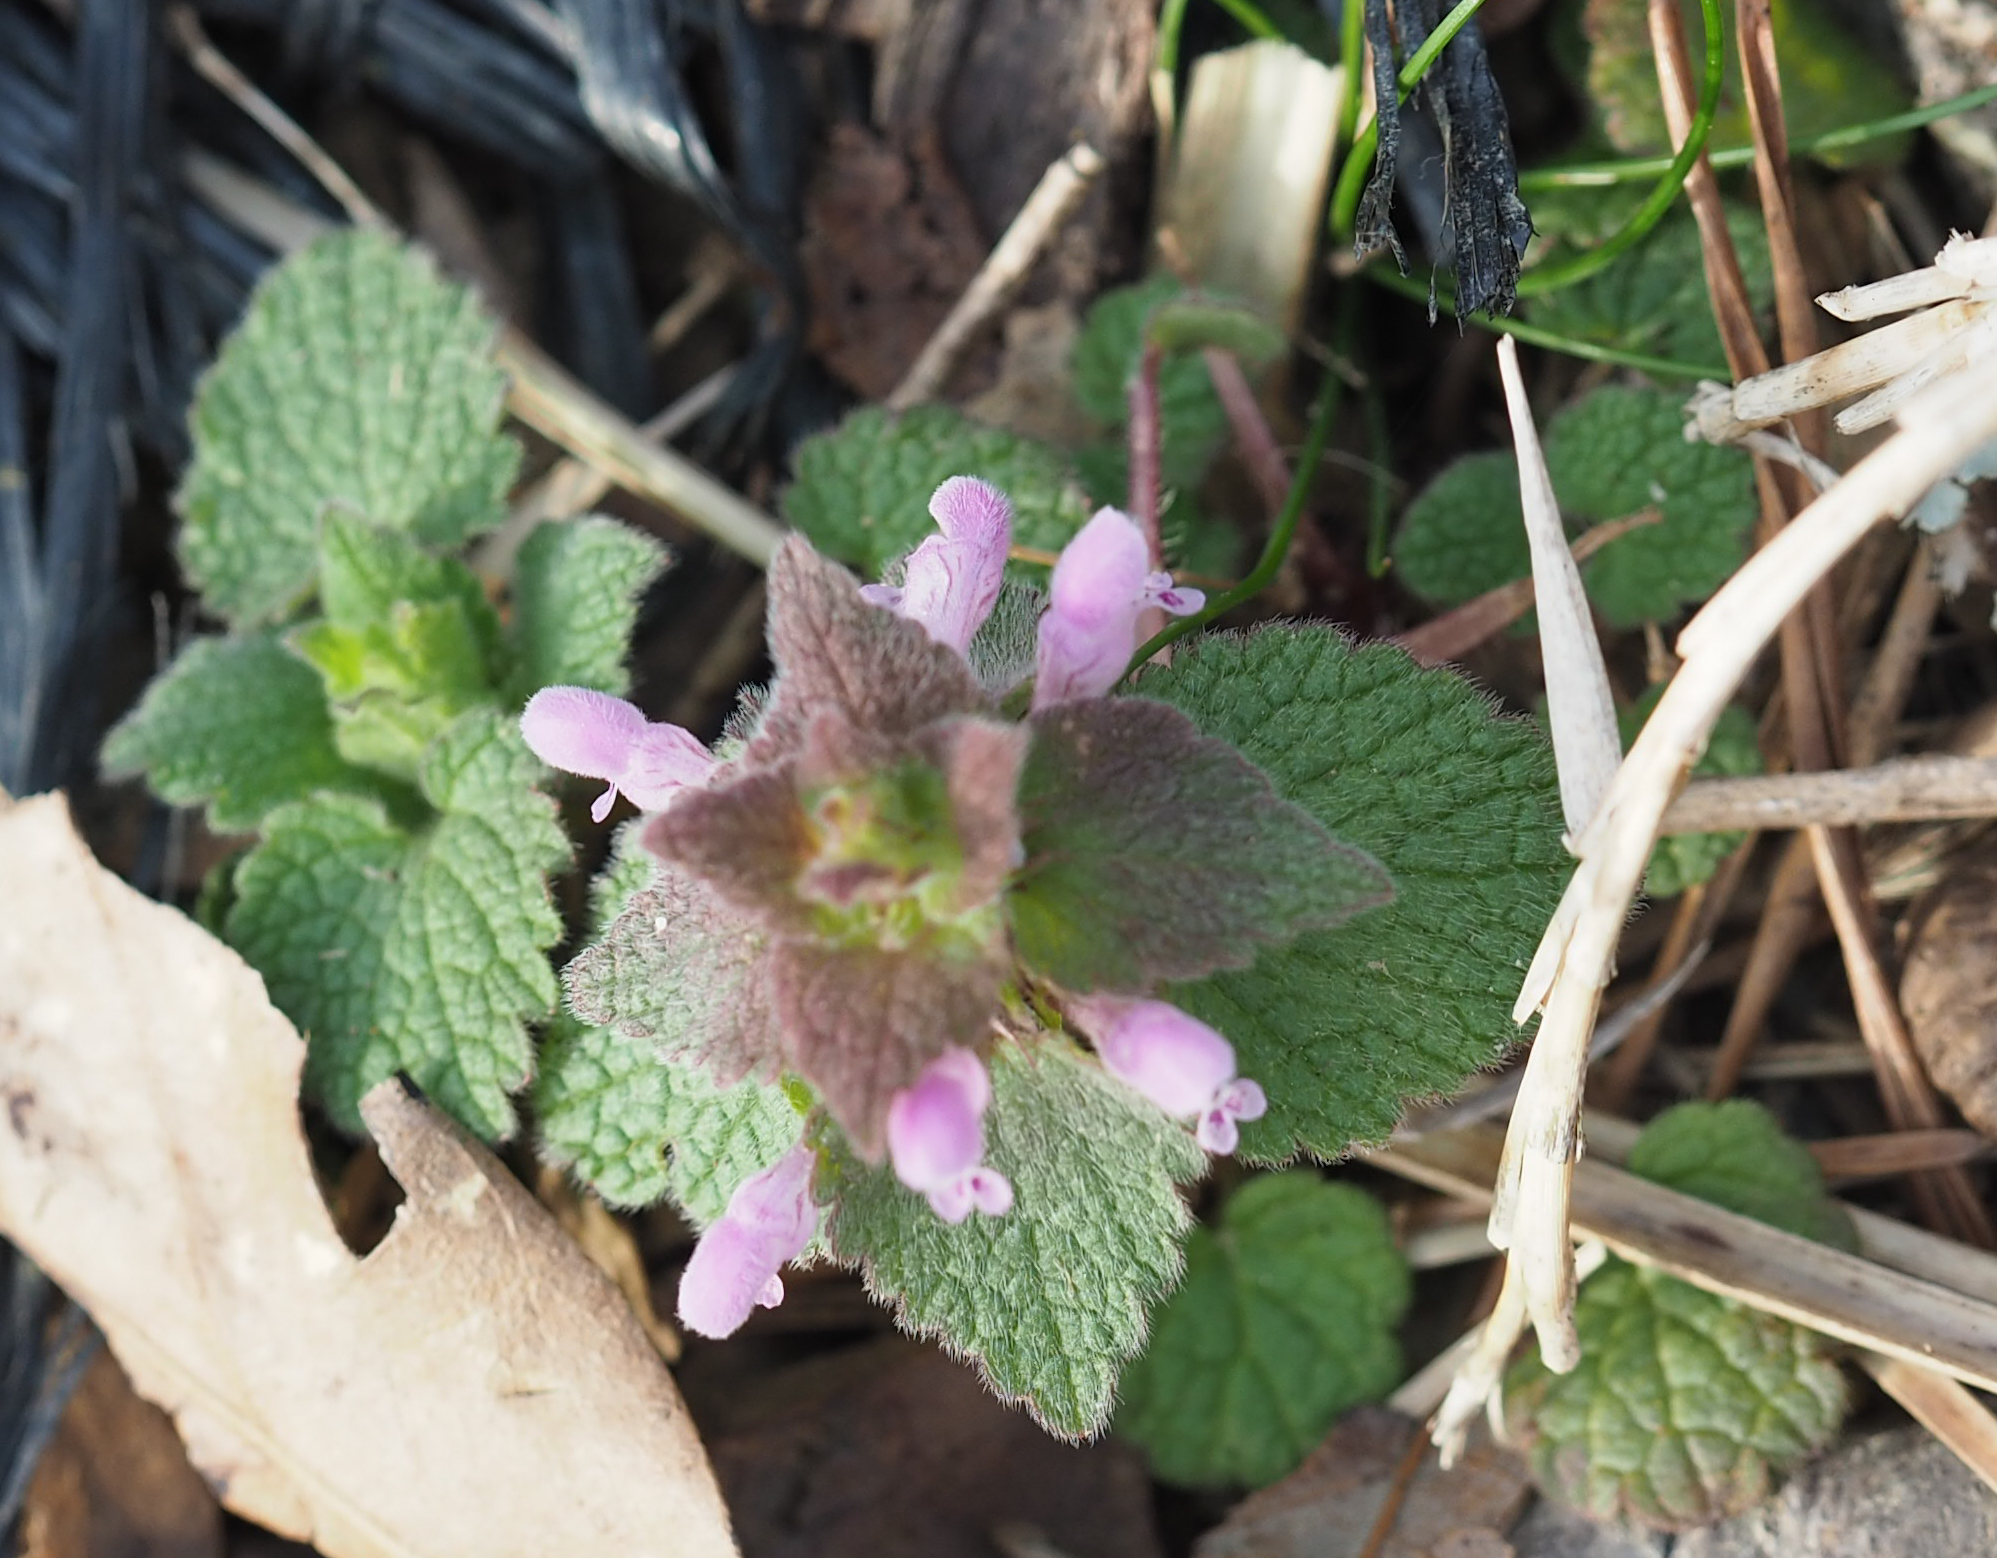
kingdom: Plantae
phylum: Tracheophyta
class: Magnoliopsida
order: Lamiales
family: Lamiaceae
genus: Lamium
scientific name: Lamium purpureum
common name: Red dead-nettle
